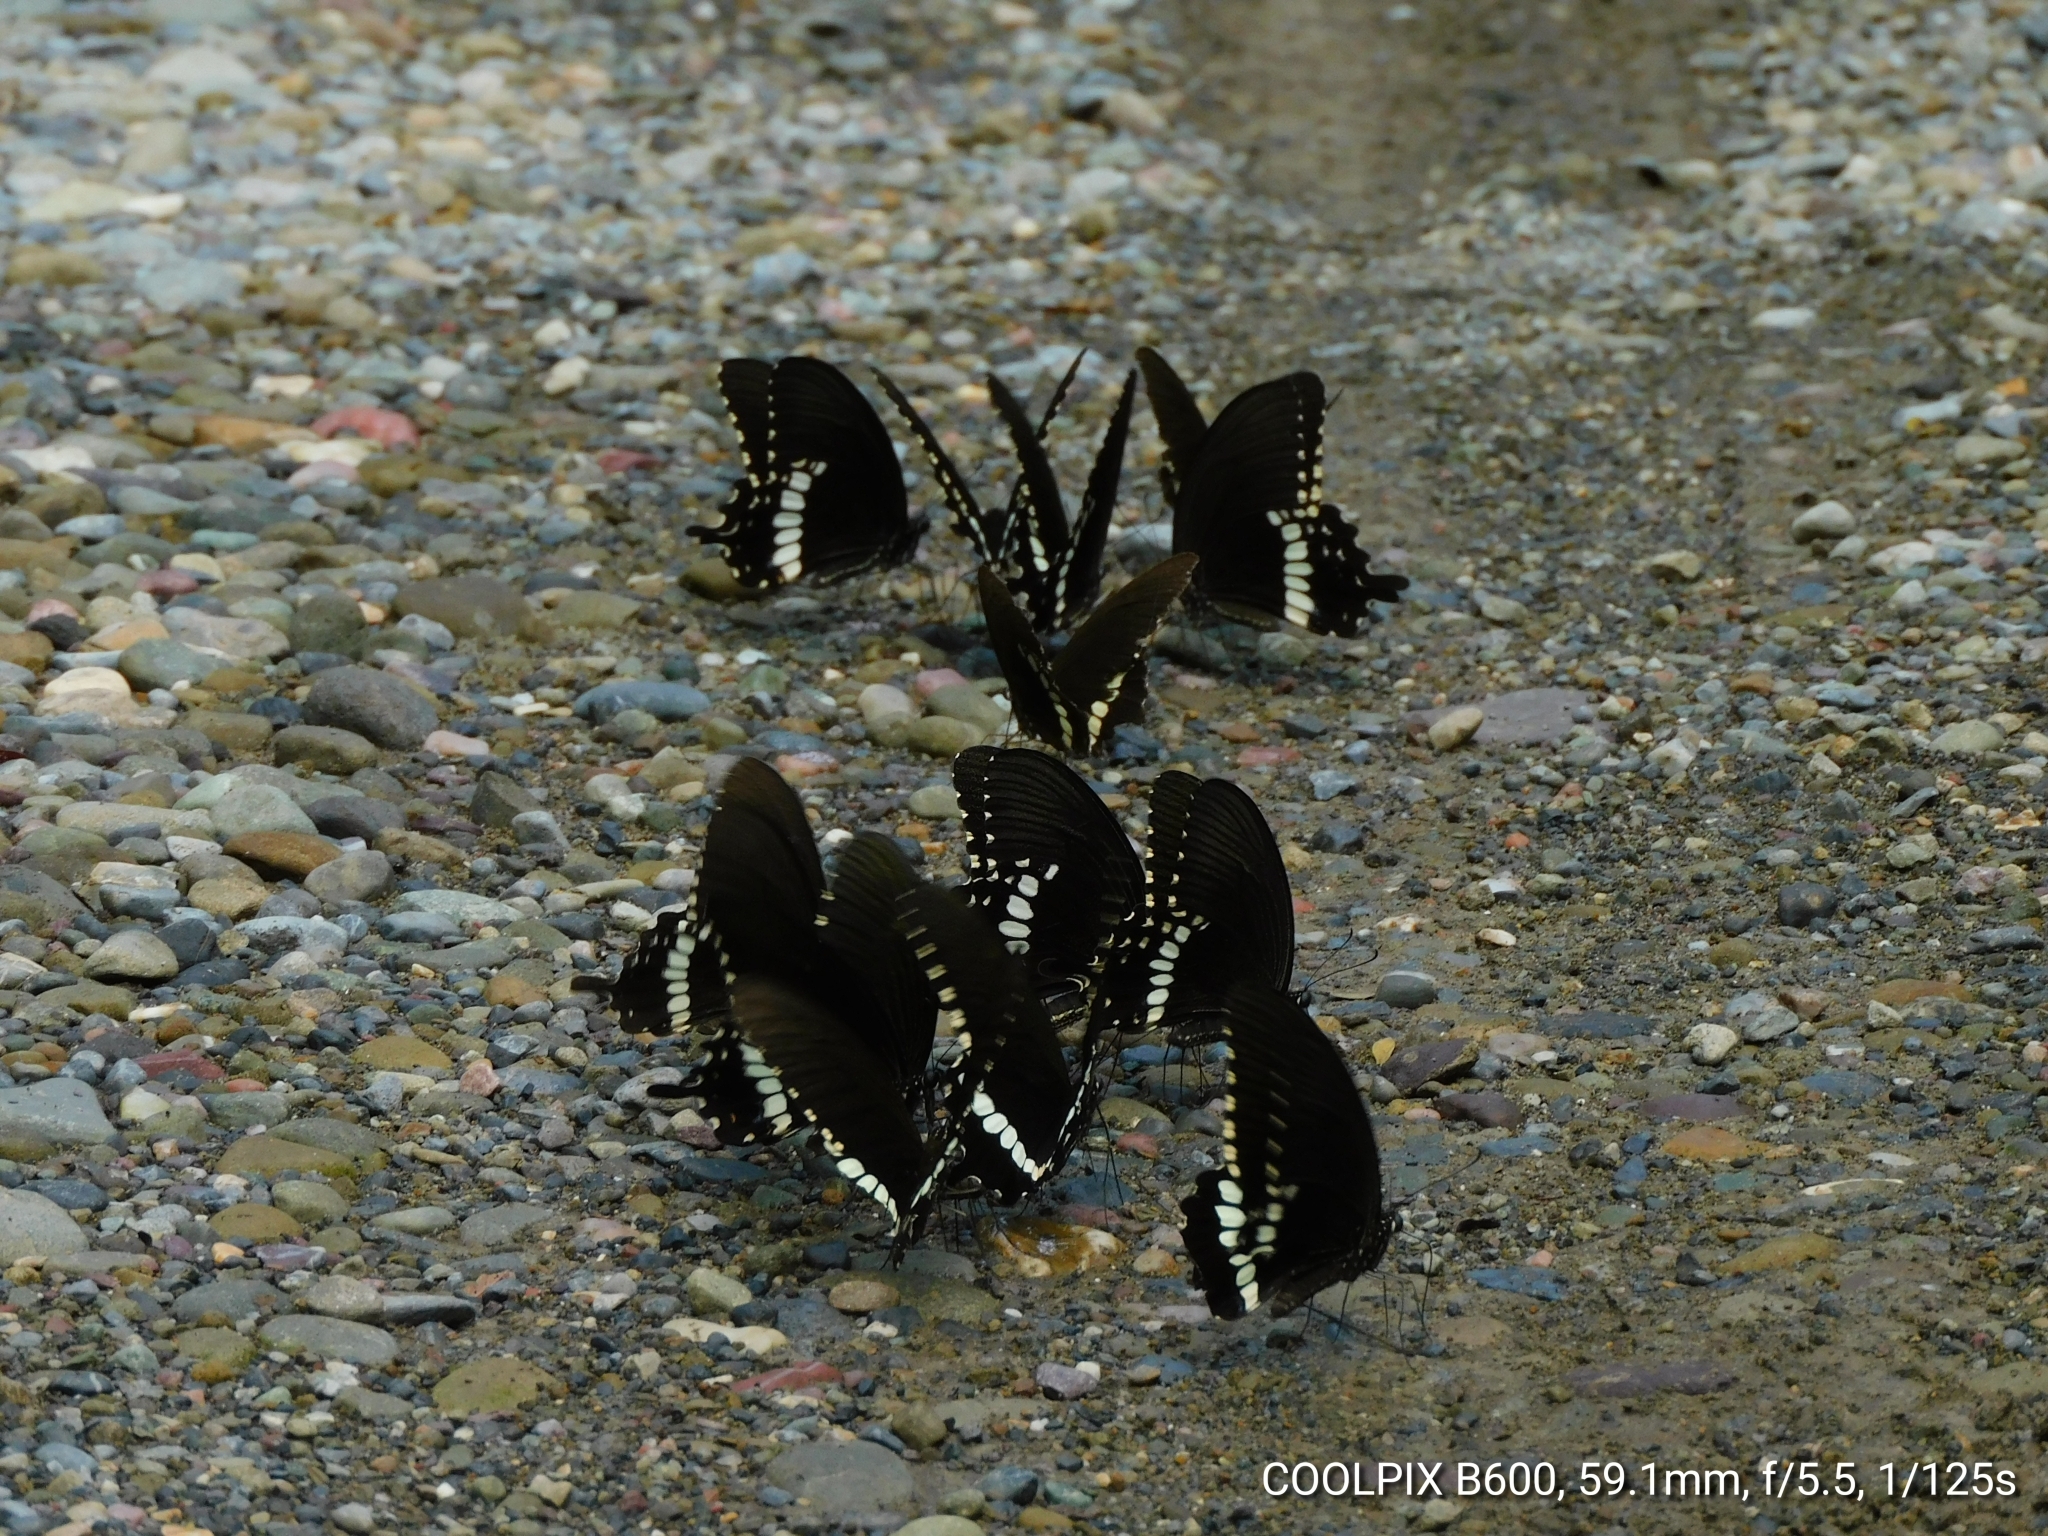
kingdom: Animalia
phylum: Arthropoda
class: Insecta
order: Lepidoptera
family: Papilionidae
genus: Papilio
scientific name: Papilio polytes
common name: Common mormon
